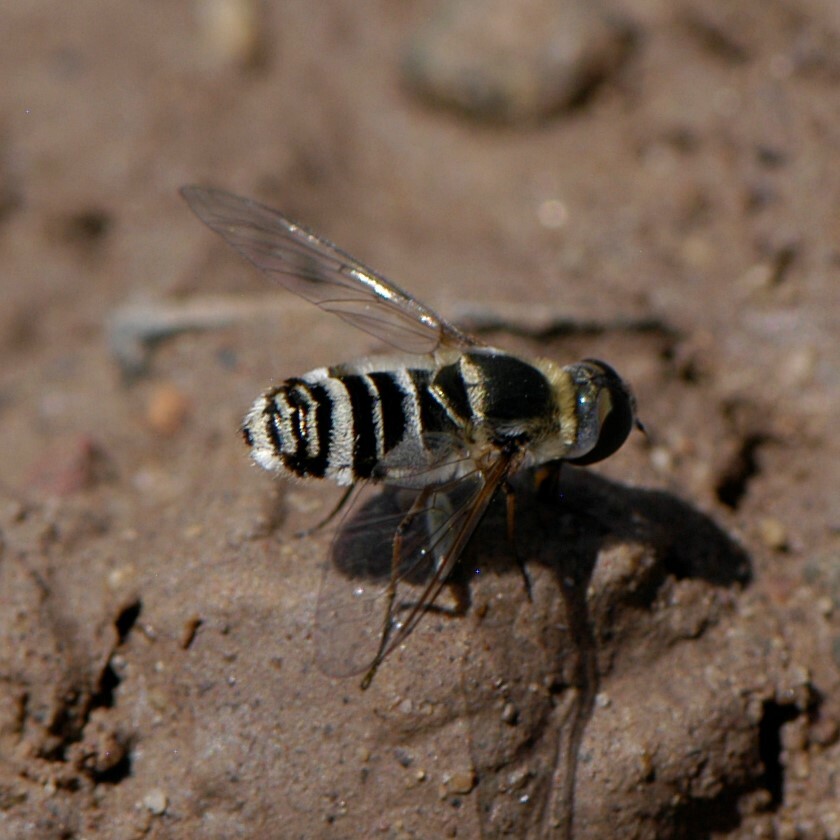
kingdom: Animalia
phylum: Arthropoda
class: Insecta
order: Diptera
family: Bombyliidae
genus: Villa
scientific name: Villa
